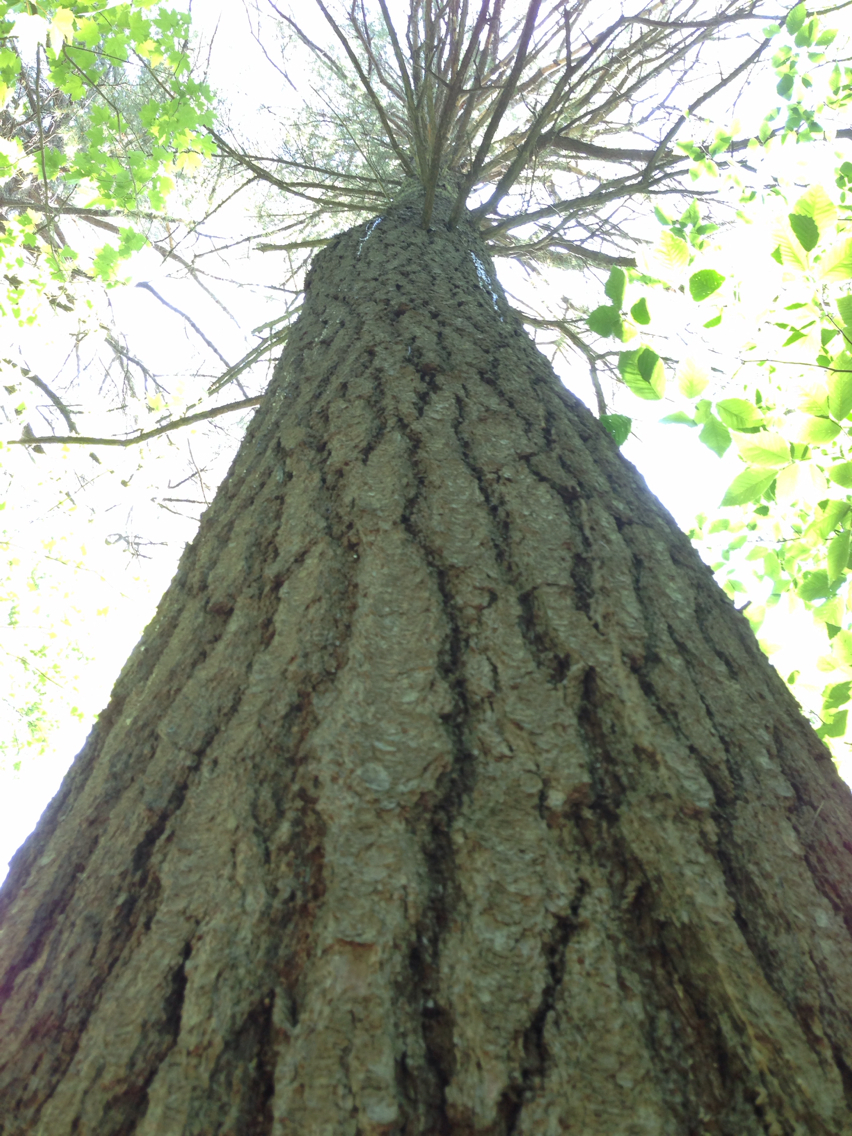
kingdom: Plantae
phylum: Tracheophyta
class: Pinopsida
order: Pinales
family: Pinaceae
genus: Pinus
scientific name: Pinus strobus
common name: Weymouth pine
